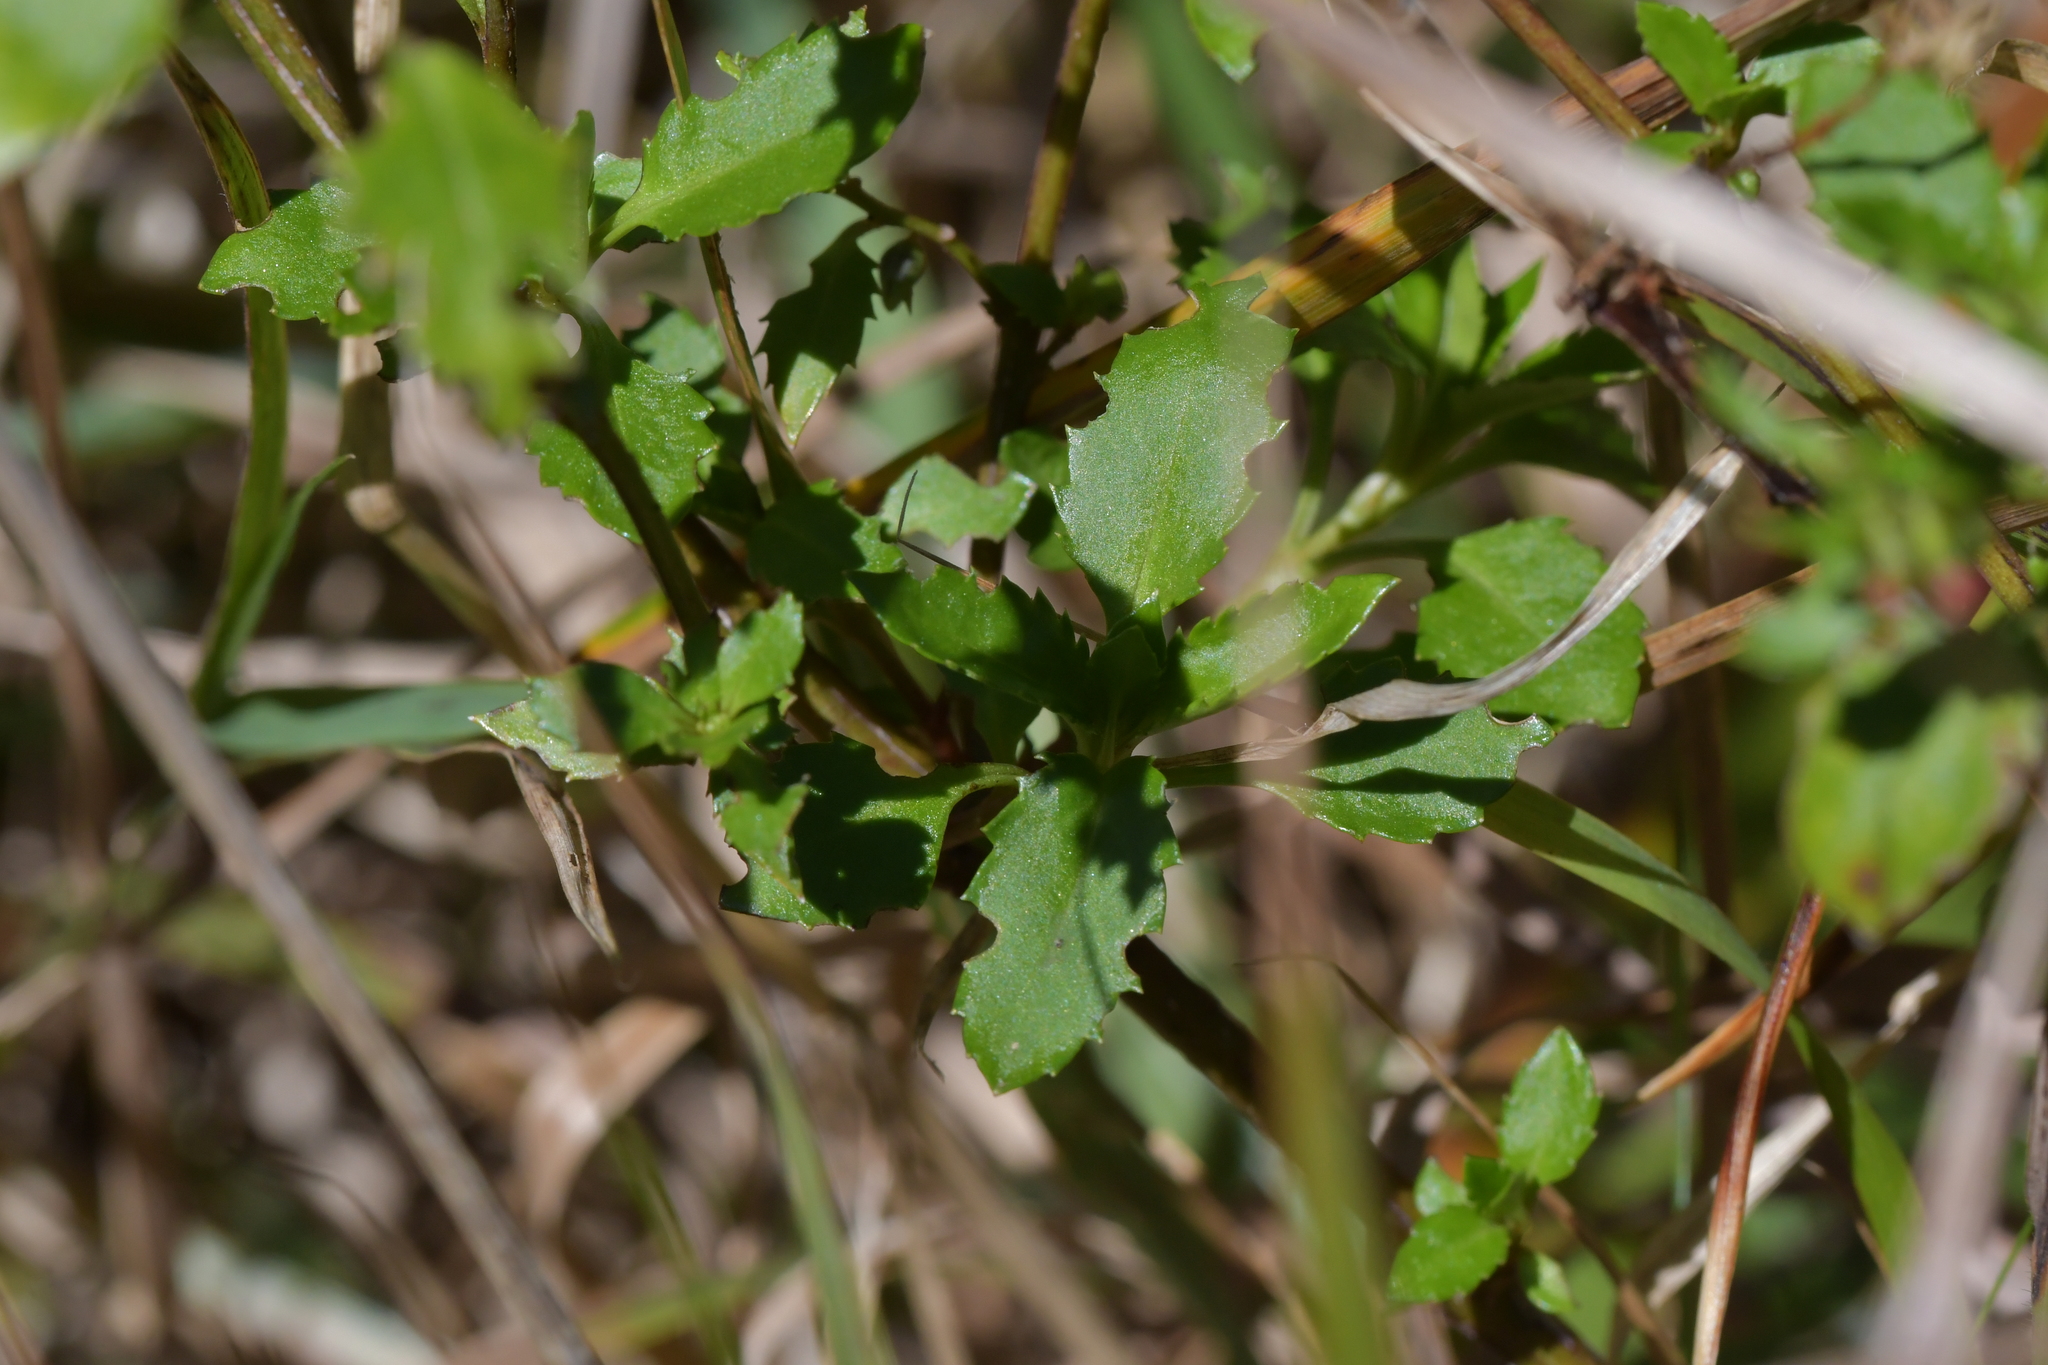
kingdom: Plantae
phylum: Tracheophyta
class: Magnoliopsida
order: Saxifragales
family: Haloragaceae
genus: Haloragis
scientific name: Haloragis erecta
